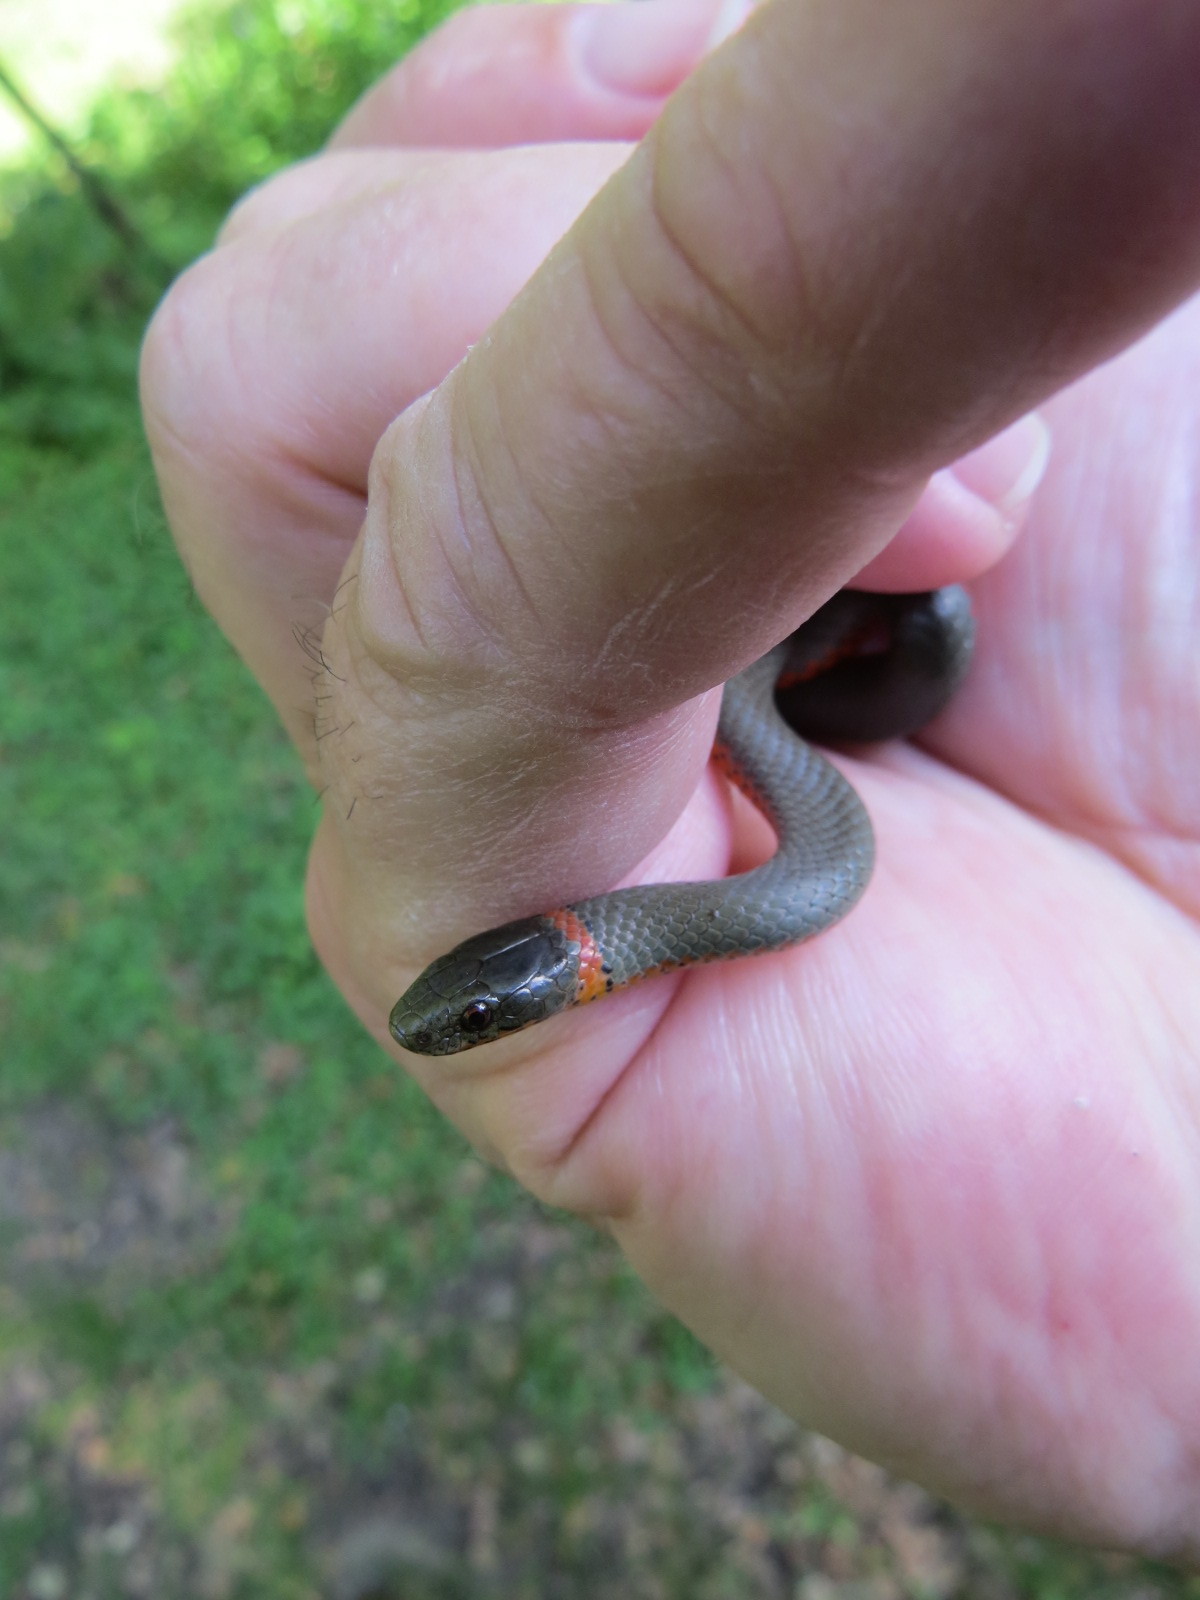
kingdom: Animalia
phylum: Chordata
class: Squamata
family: Colubridae
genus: Diadophis
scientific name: Diadophis punctatus
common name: Ringneck snake
